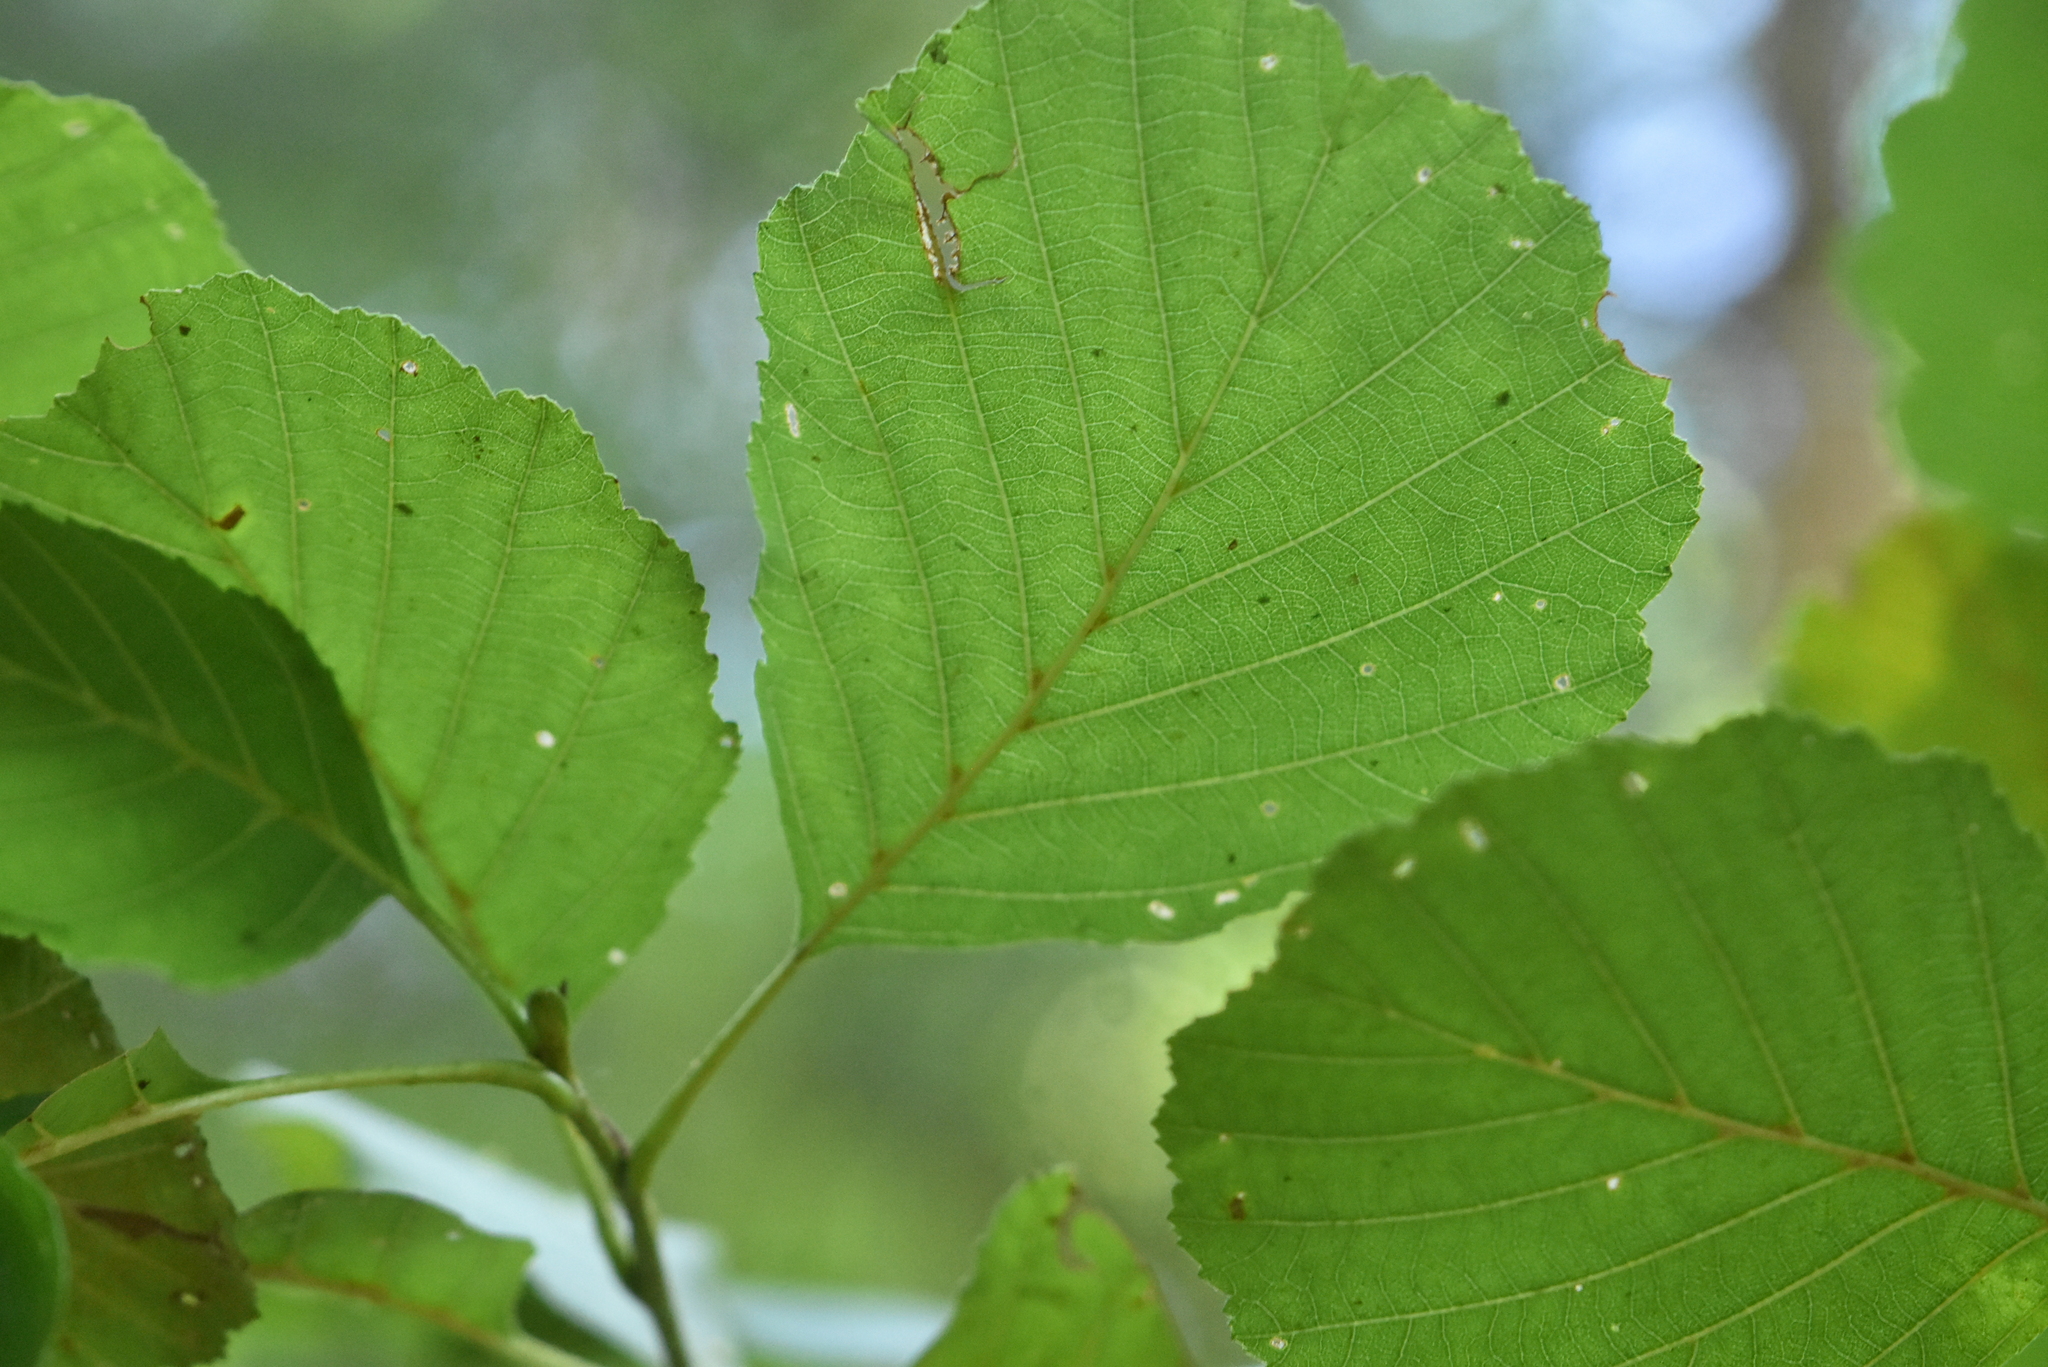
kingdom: Plantae
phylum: Tracheophyta
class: Magnoliopsida
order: Fagales
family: Betulaceae
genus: Alnus
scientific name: Alnus glutinosa
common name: Black alder
